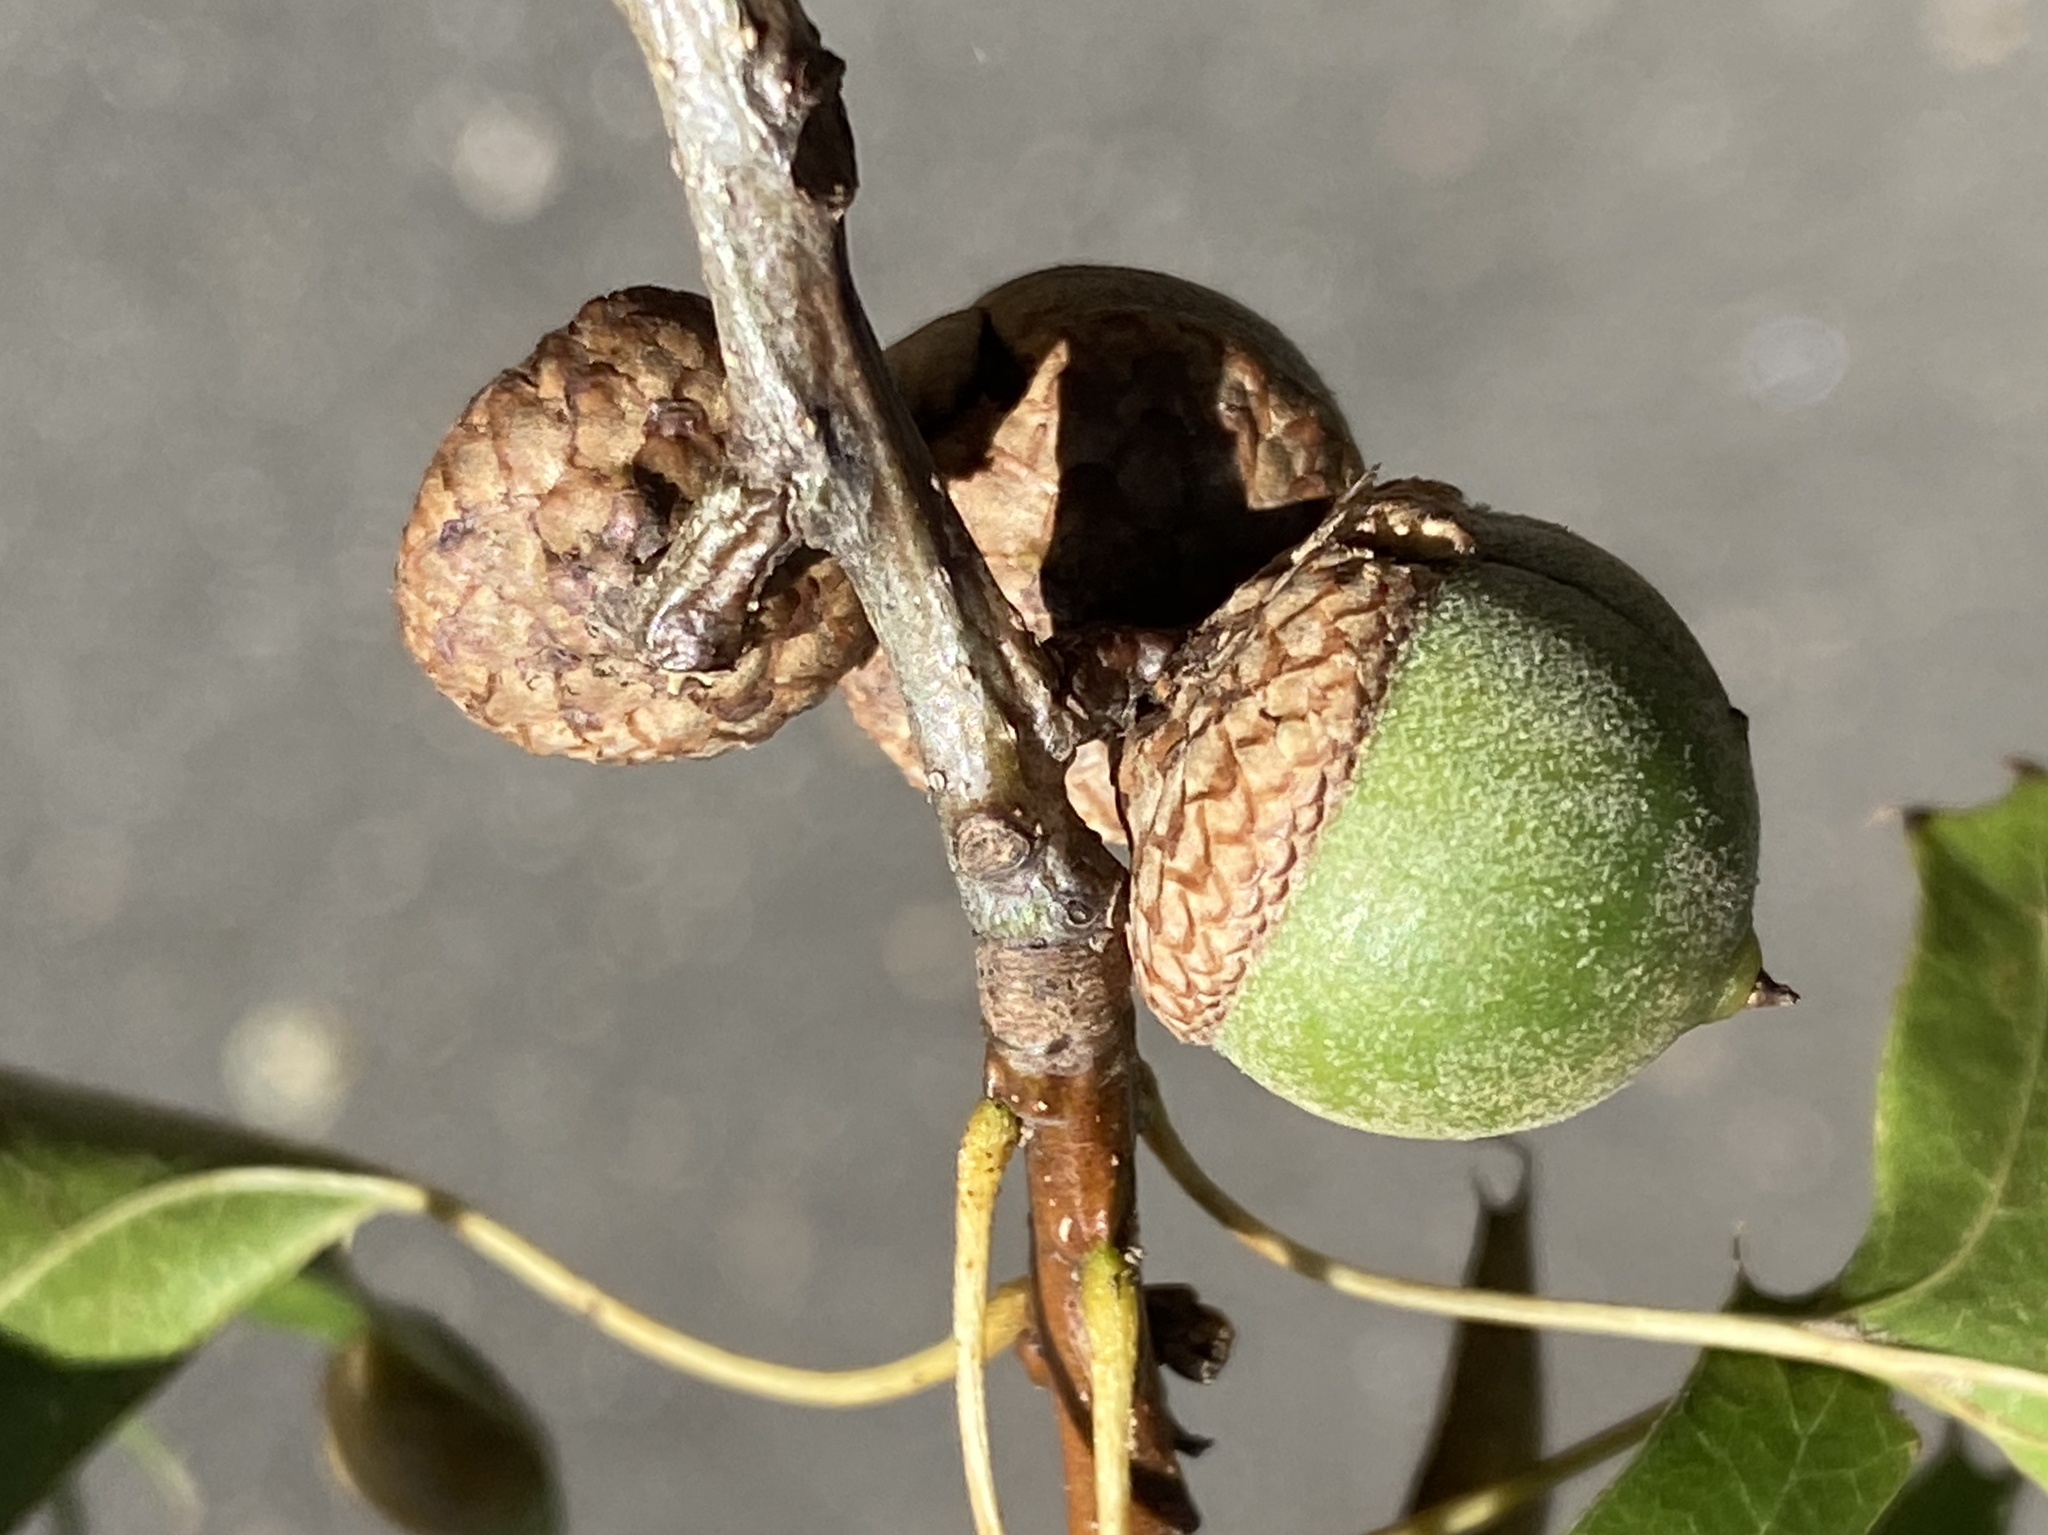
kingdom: Plantae
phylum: Tracheophyta
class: Magnoliopsida
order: Fagales
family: Fagaceae
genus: Quercus
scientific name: Quercus palustris
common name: Pin oak
